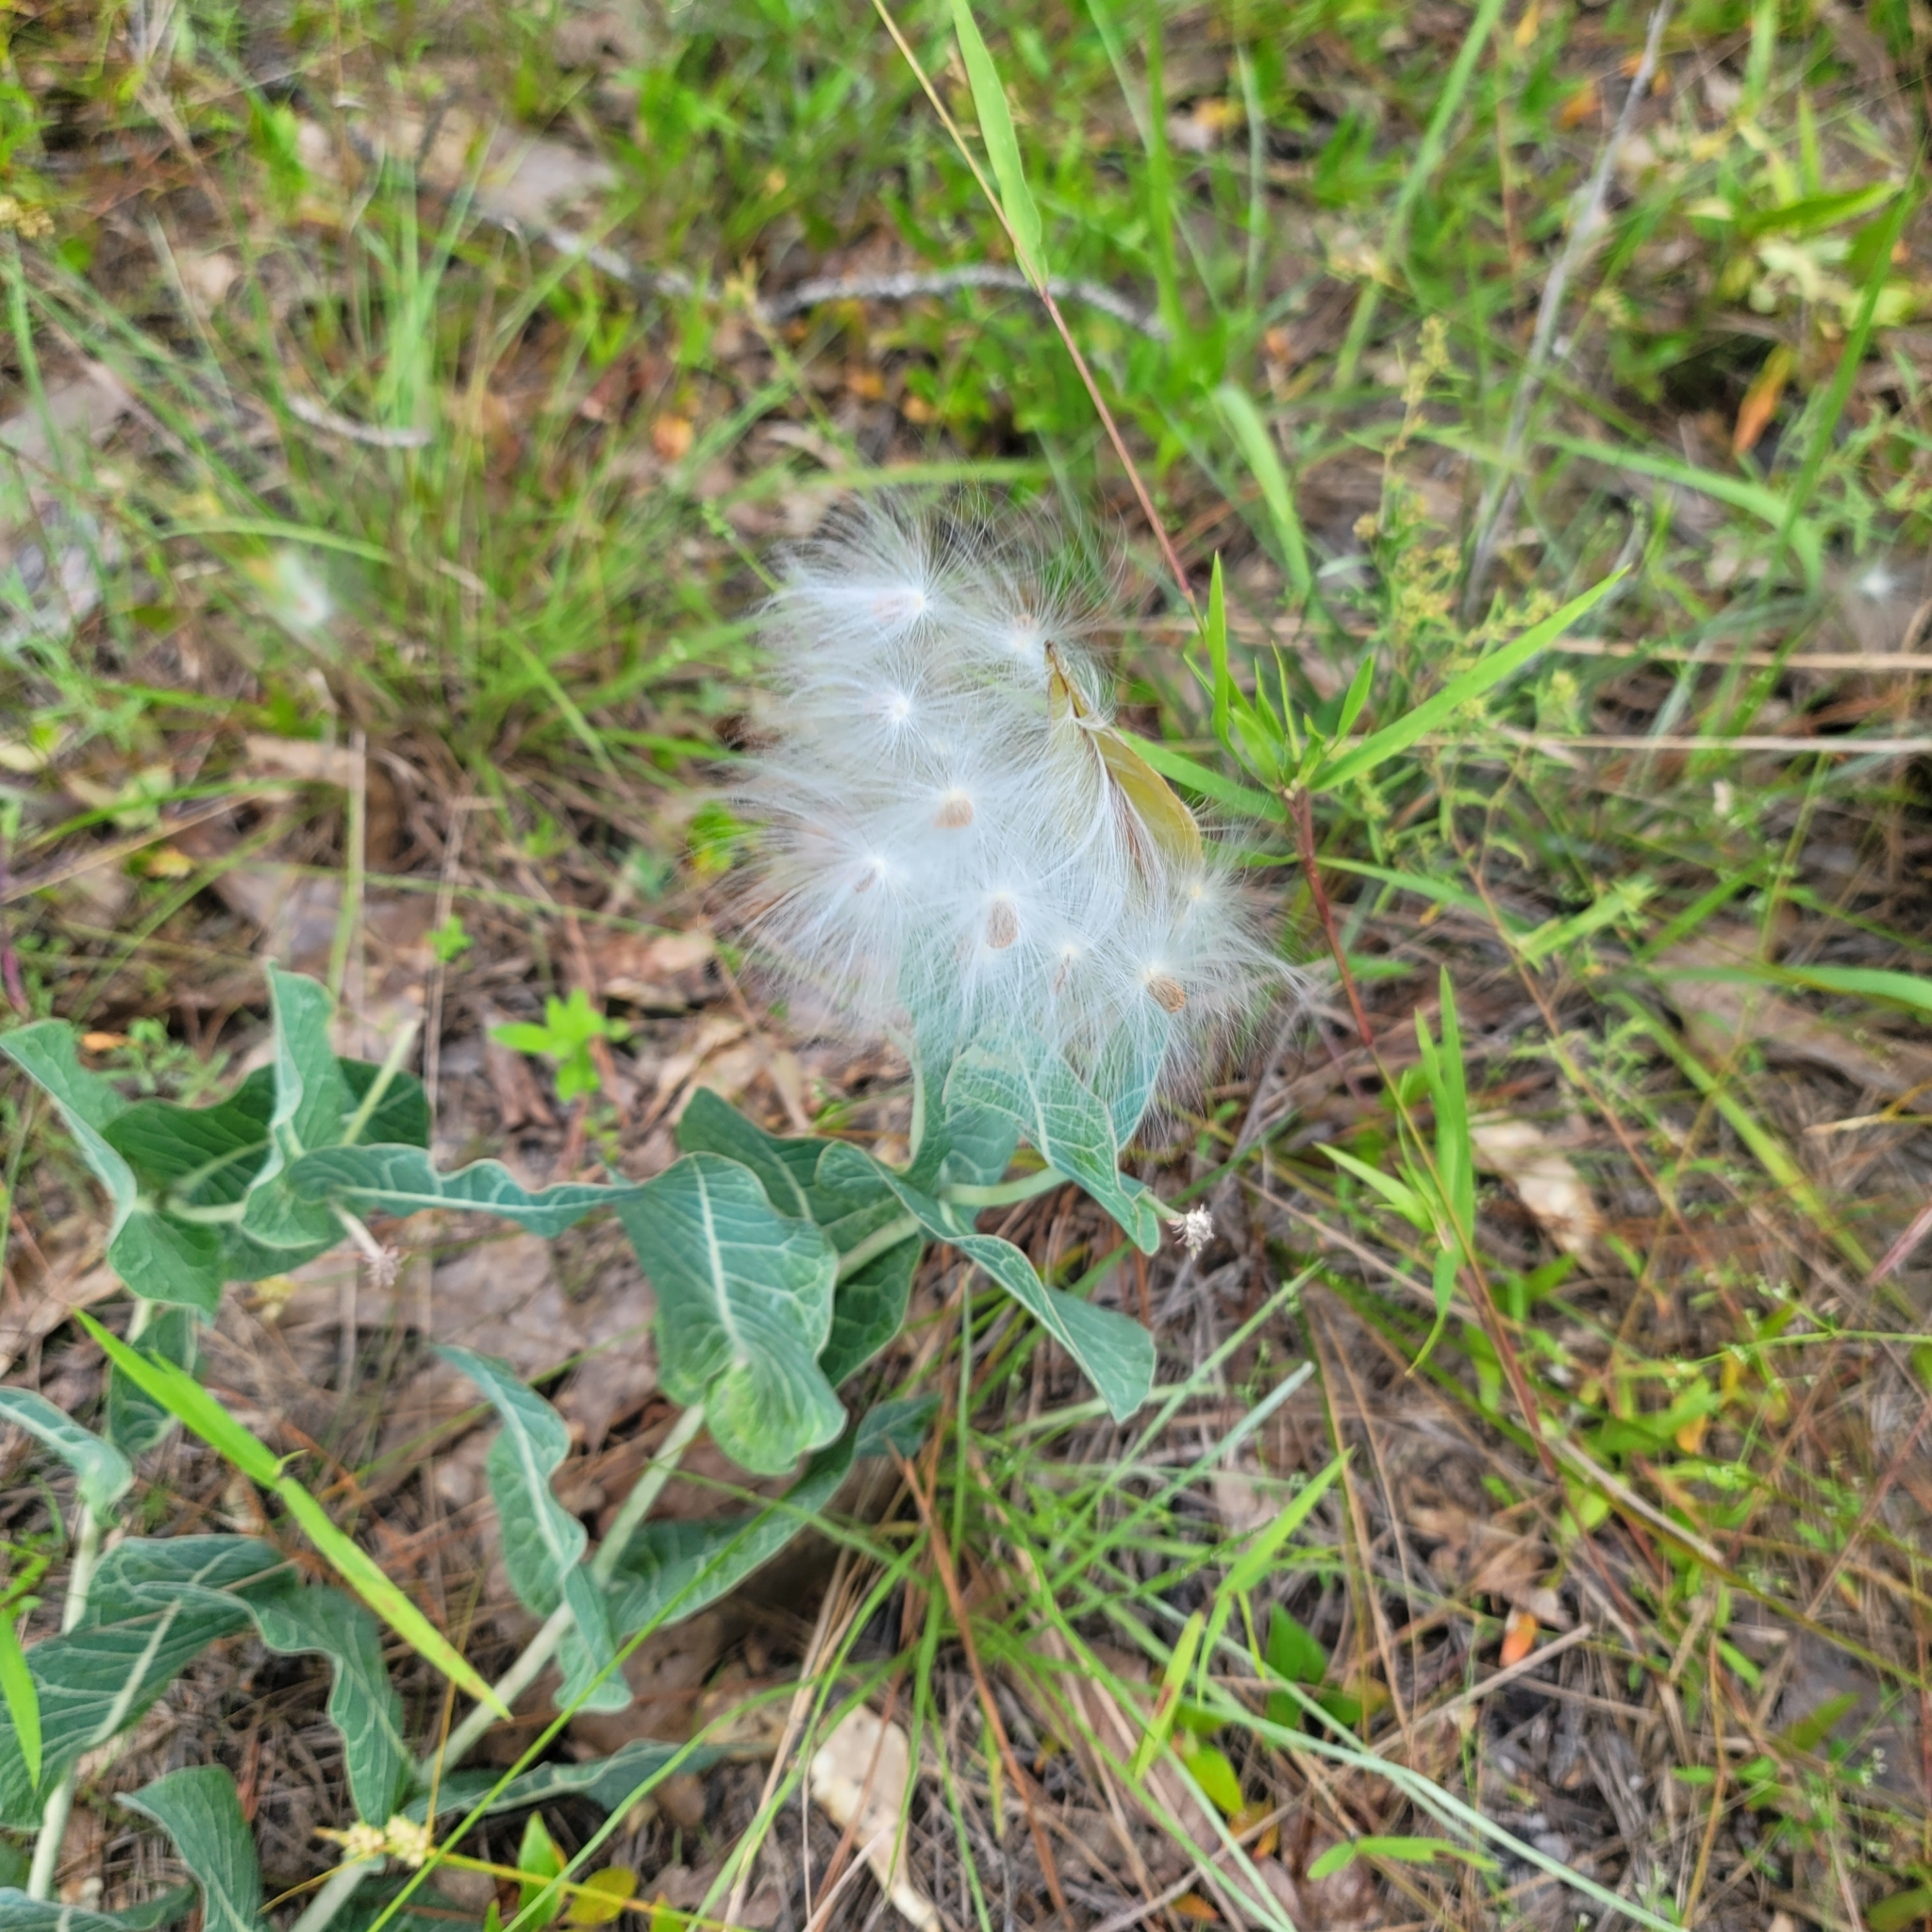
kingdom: Plantae
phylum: Tracheophyta
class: Magnoliopsida
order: Gentianales
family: Apocynaceae
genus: Asclepias
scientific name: Asclepias humistrata
